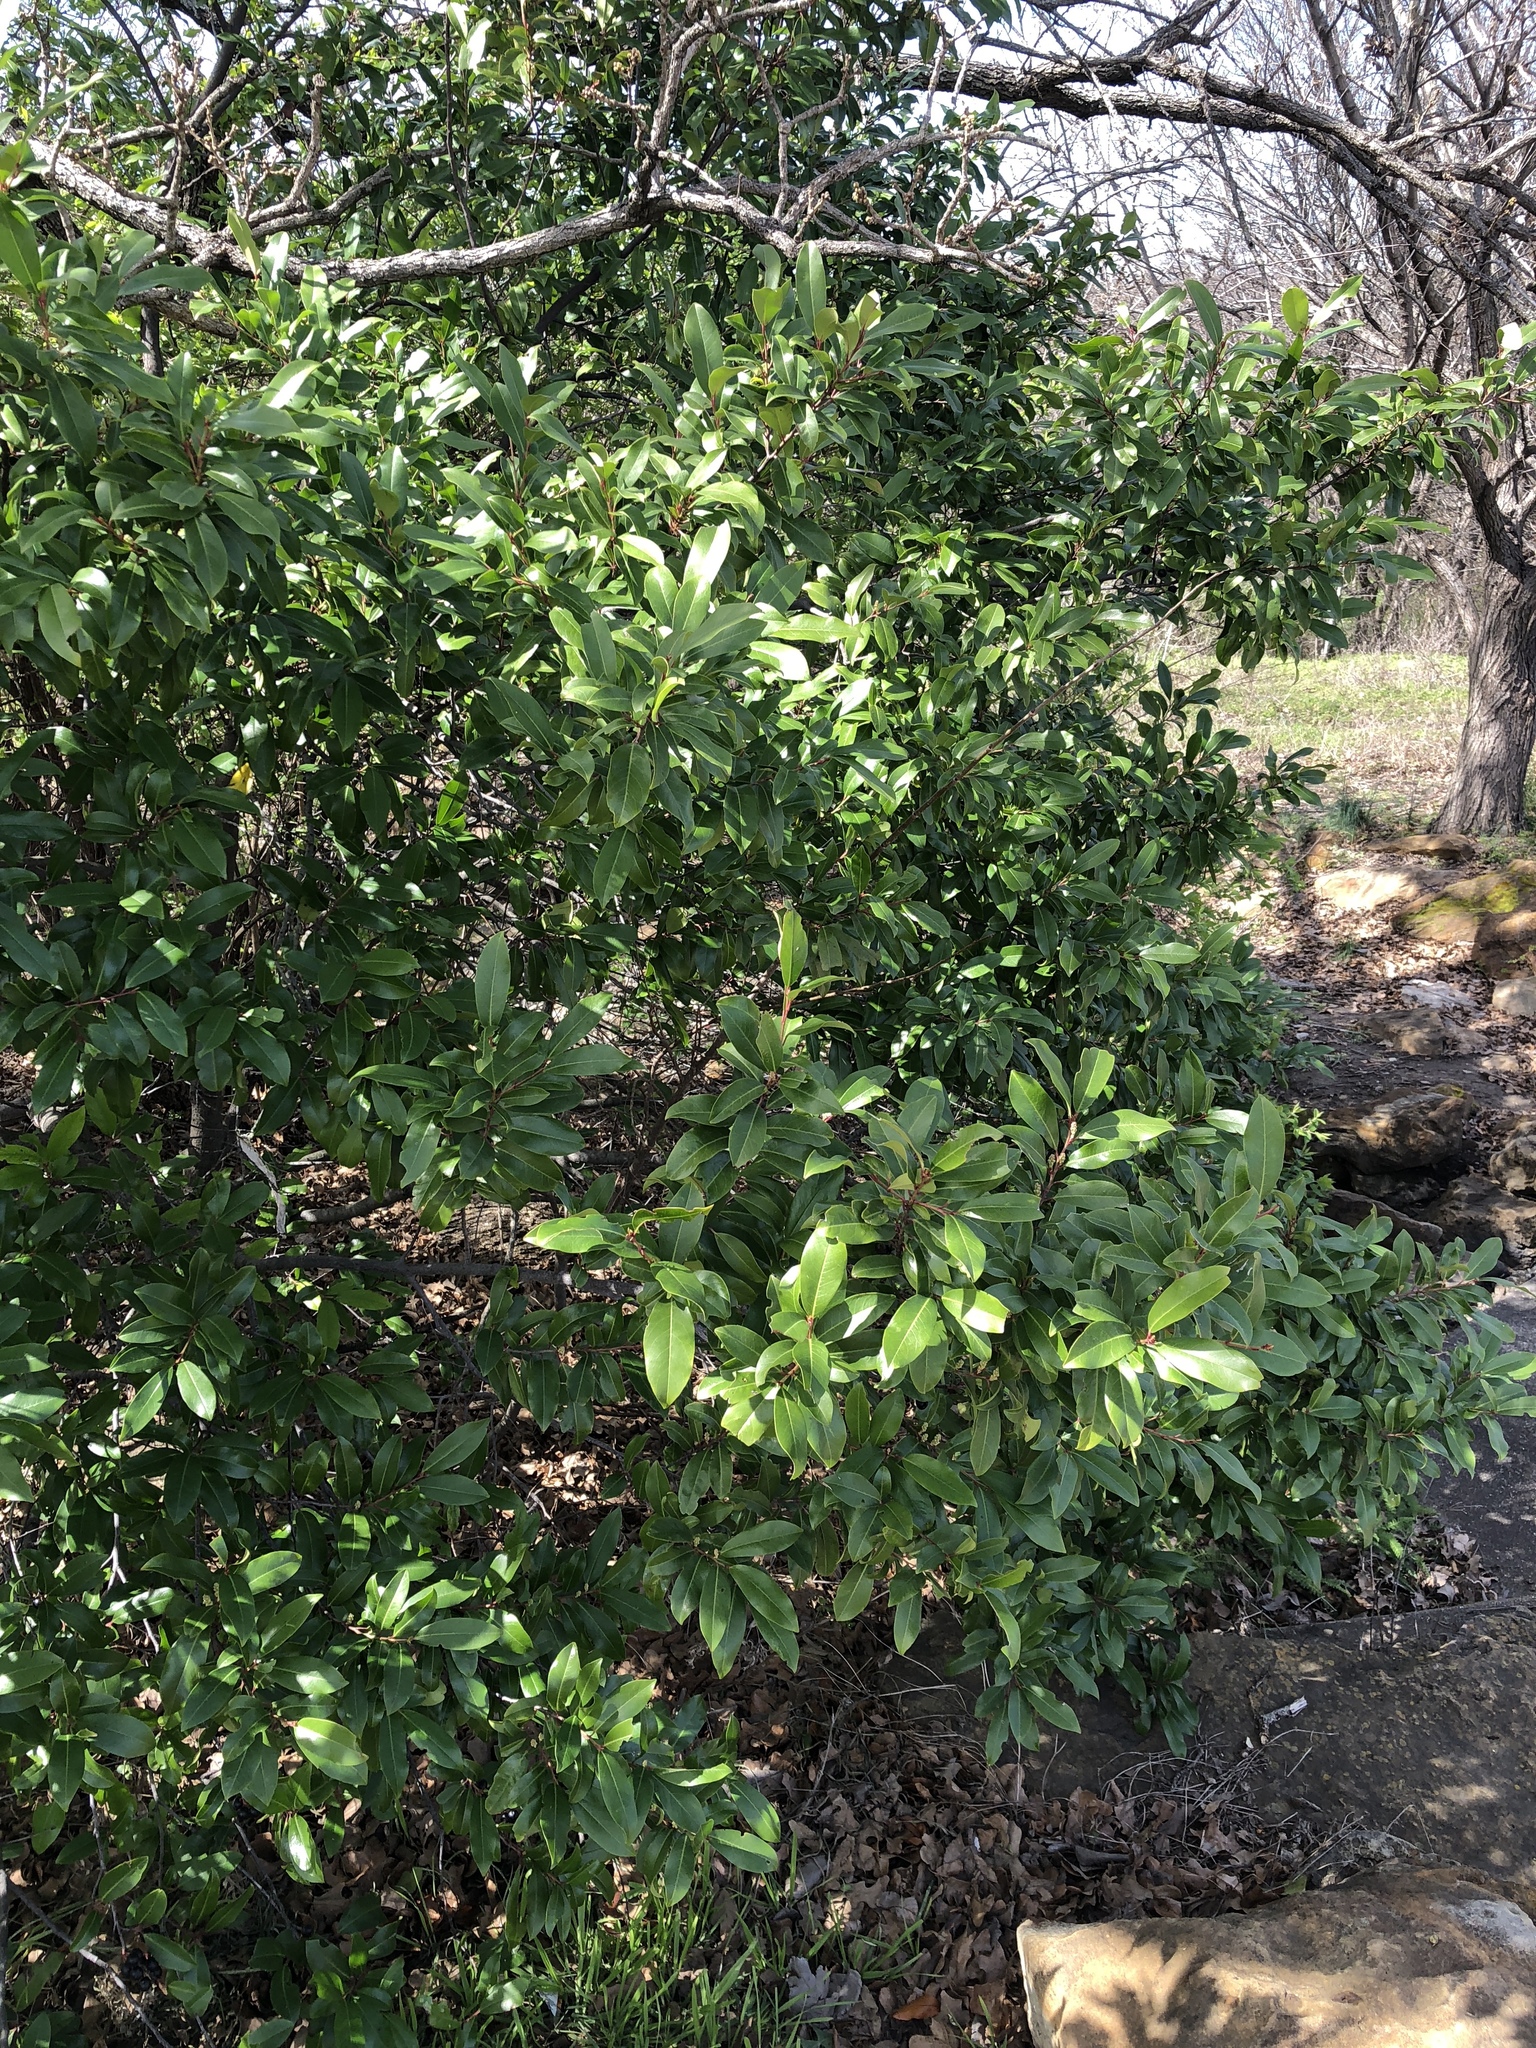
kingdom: Plantae
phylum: Tracheophyta
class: Magnoliopsida
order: Rosales
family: Rosaceae
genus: Prunus
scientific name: Prunus caroliniana
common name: Carolina laurel cherry
